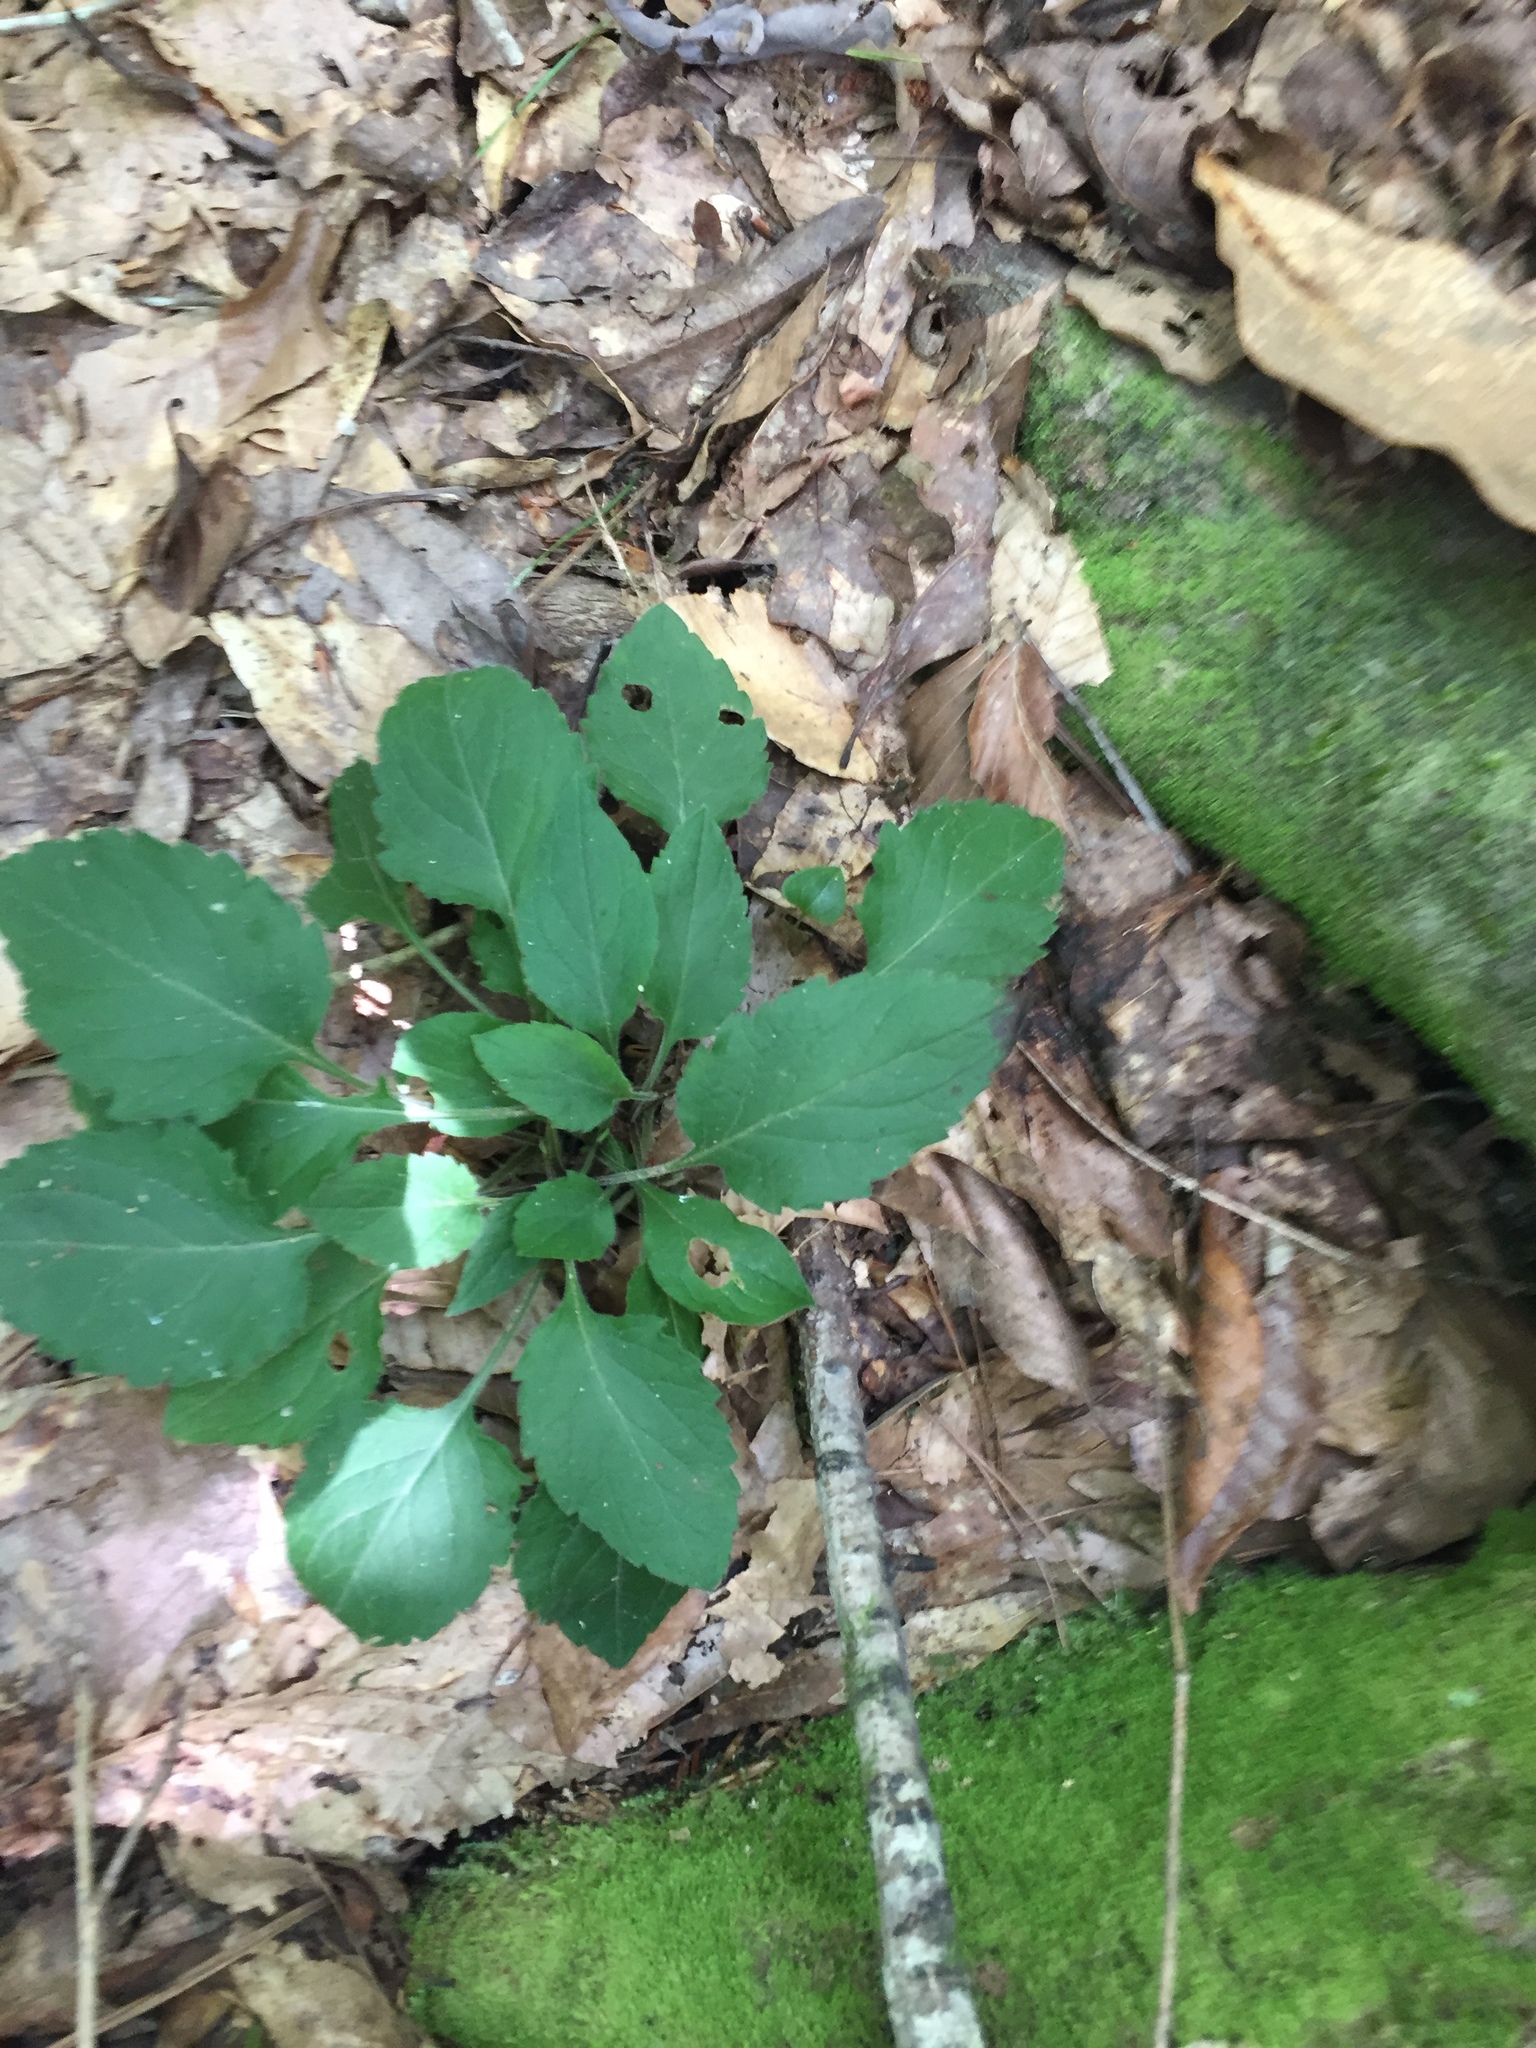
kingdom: Plantae
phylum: Tracheophyta
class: Magnoliopsida
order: Asterales
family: Asteraceae
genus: Solidago
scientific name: Solidago discoidea
